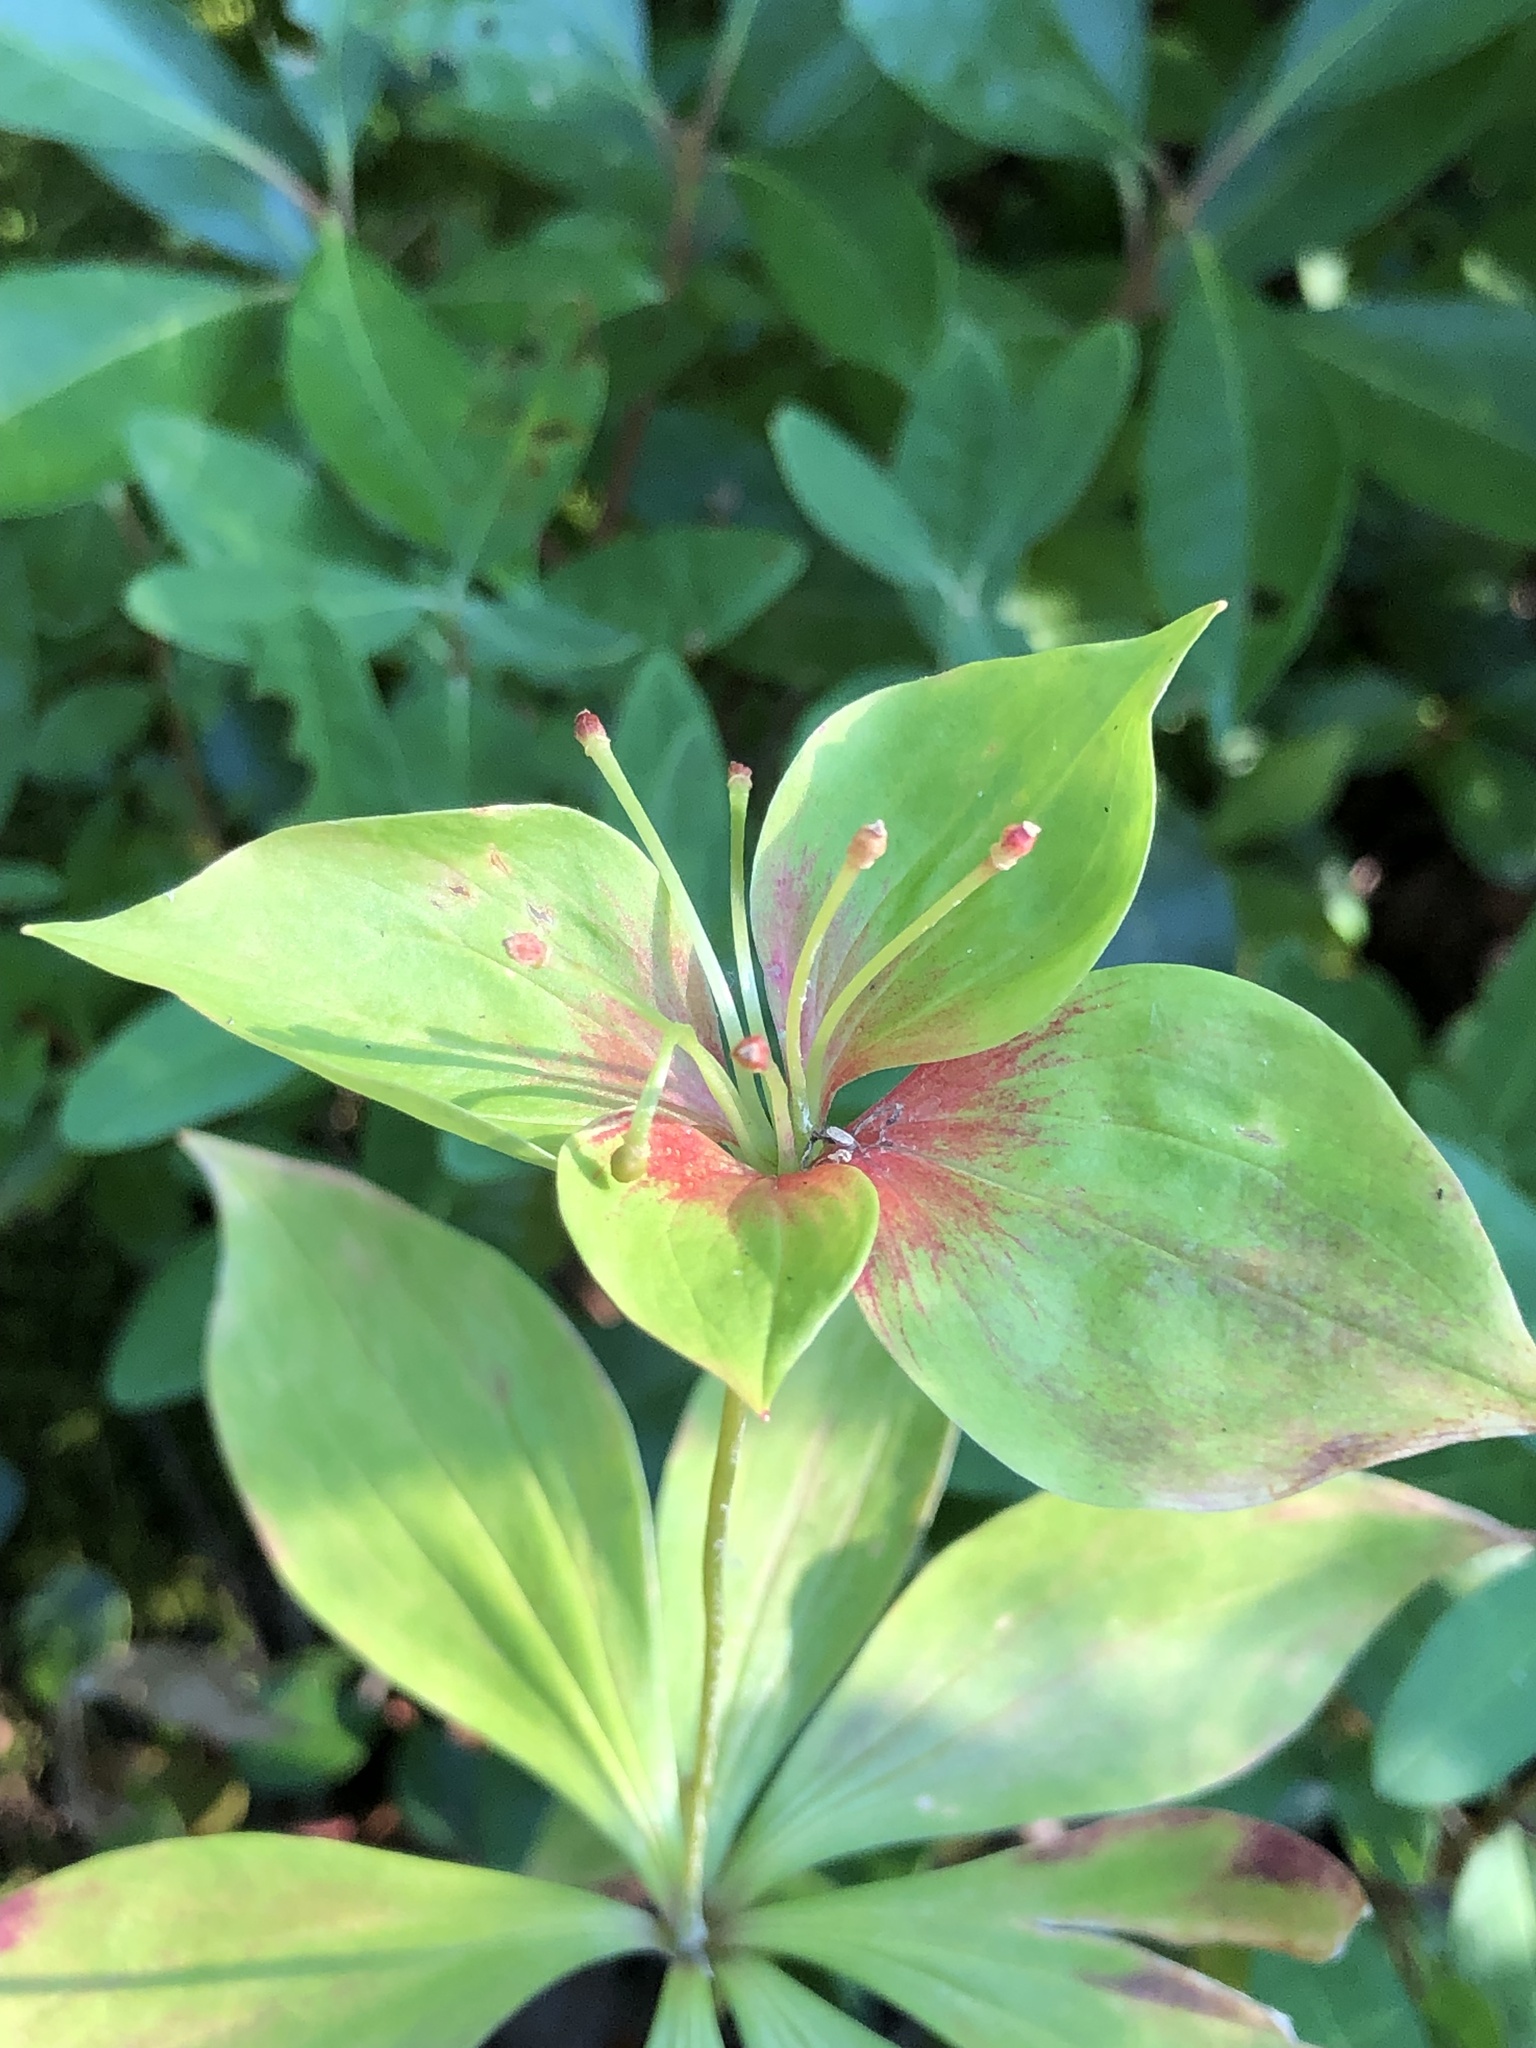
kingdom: Plantae
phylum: Tracheophyta
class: Liliopsida
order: Liliales
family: Liliaceae
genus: Medeola
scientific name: Medeola virginiana
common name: Indian cucumber-root
